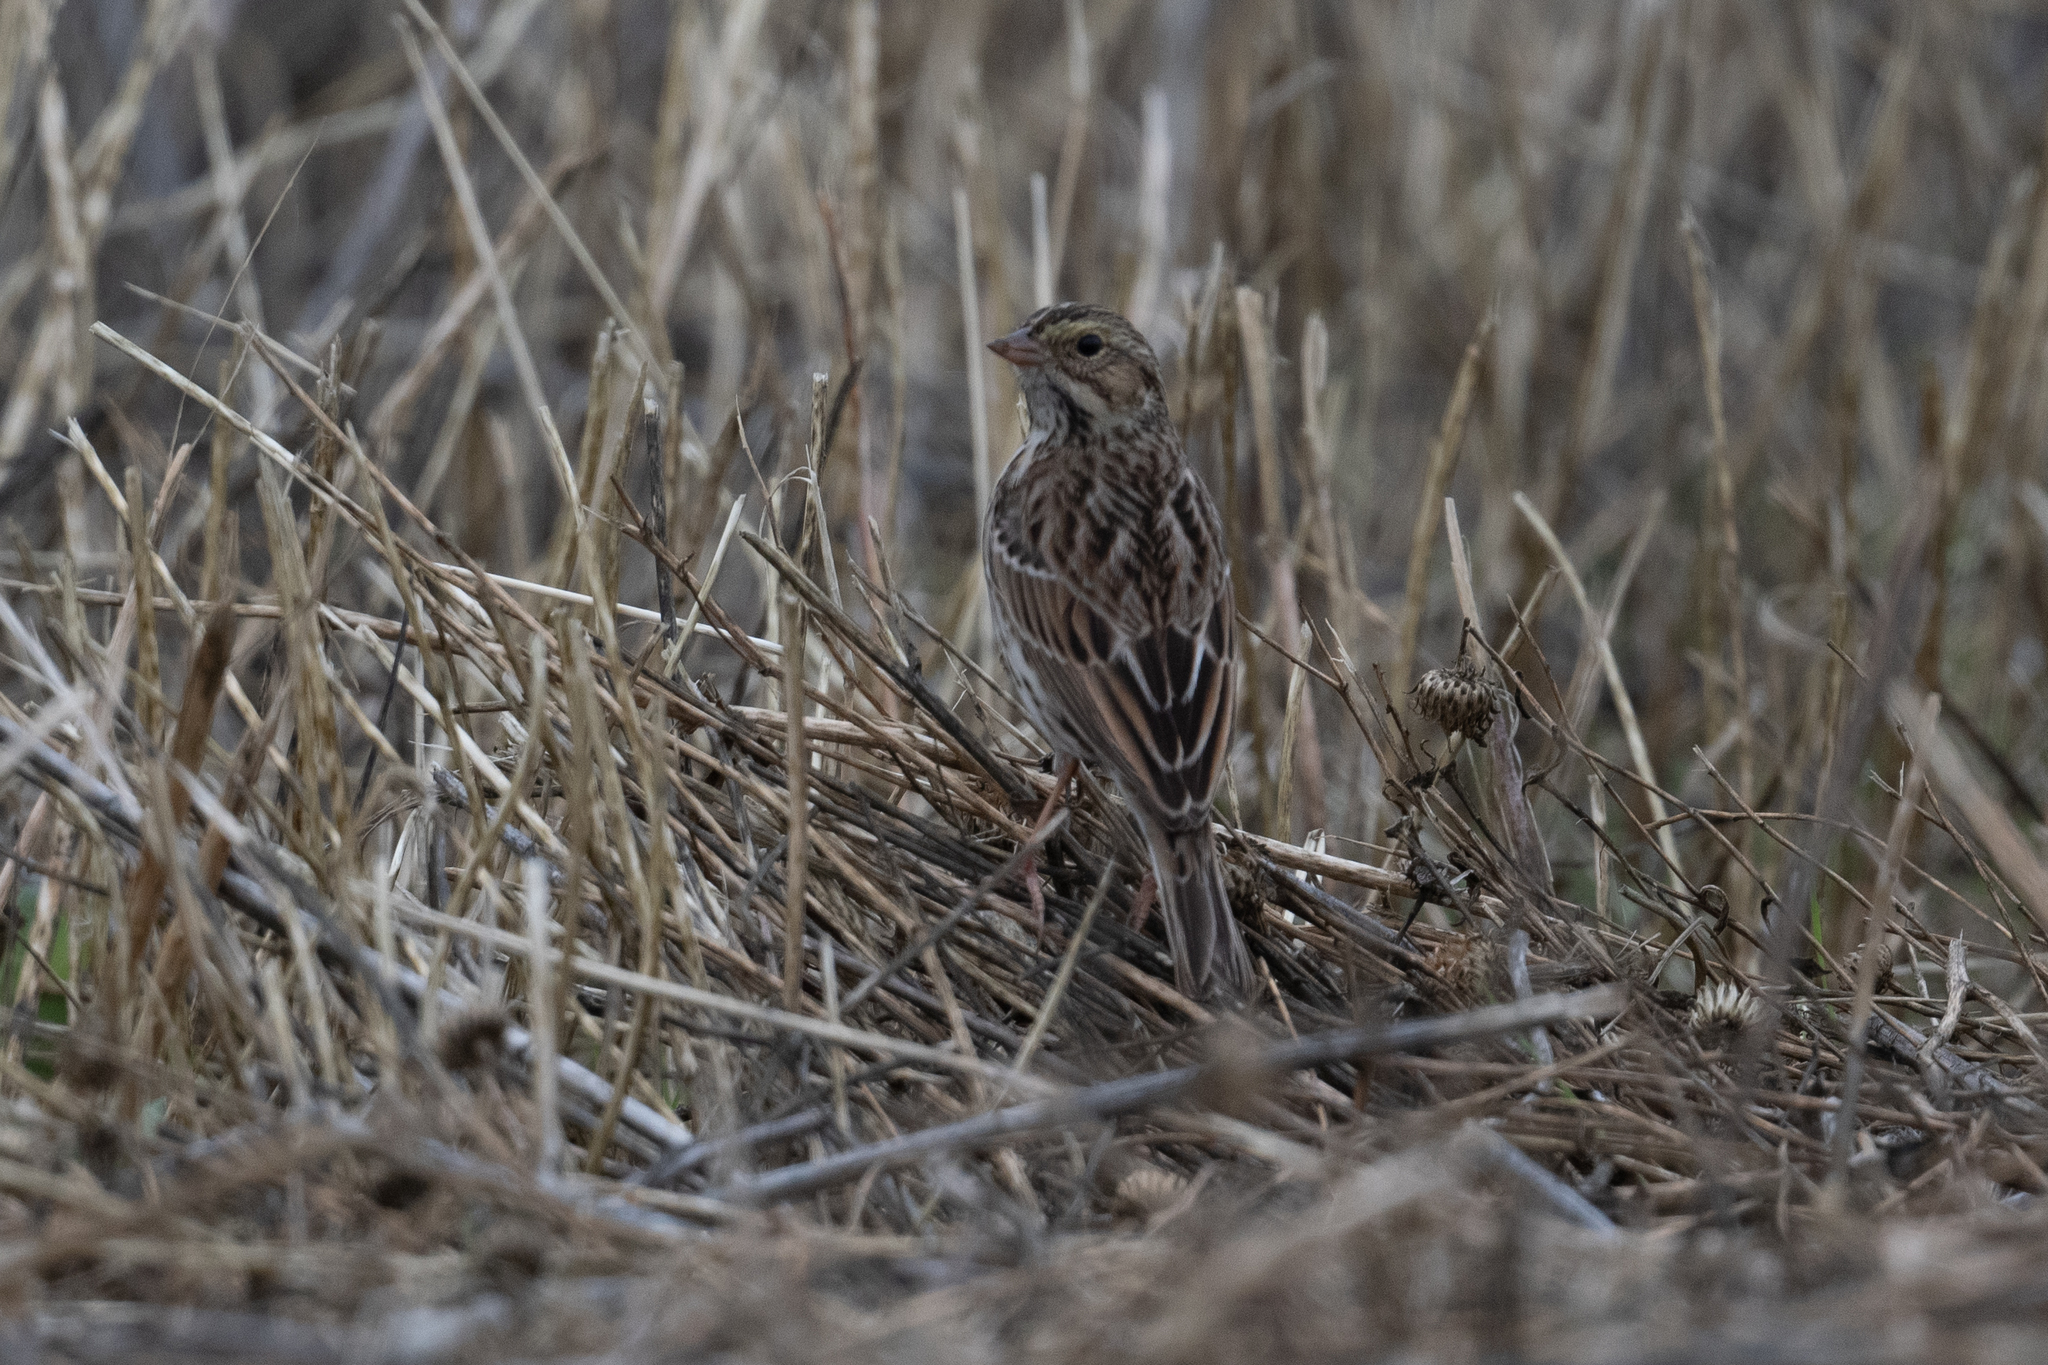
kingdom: Animalia
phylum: Chordata
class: Aves
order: Passeriformes
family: Passerellidae
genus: Passerculus
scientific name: Passerculus sandwichensis
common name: Savannah sparrow
